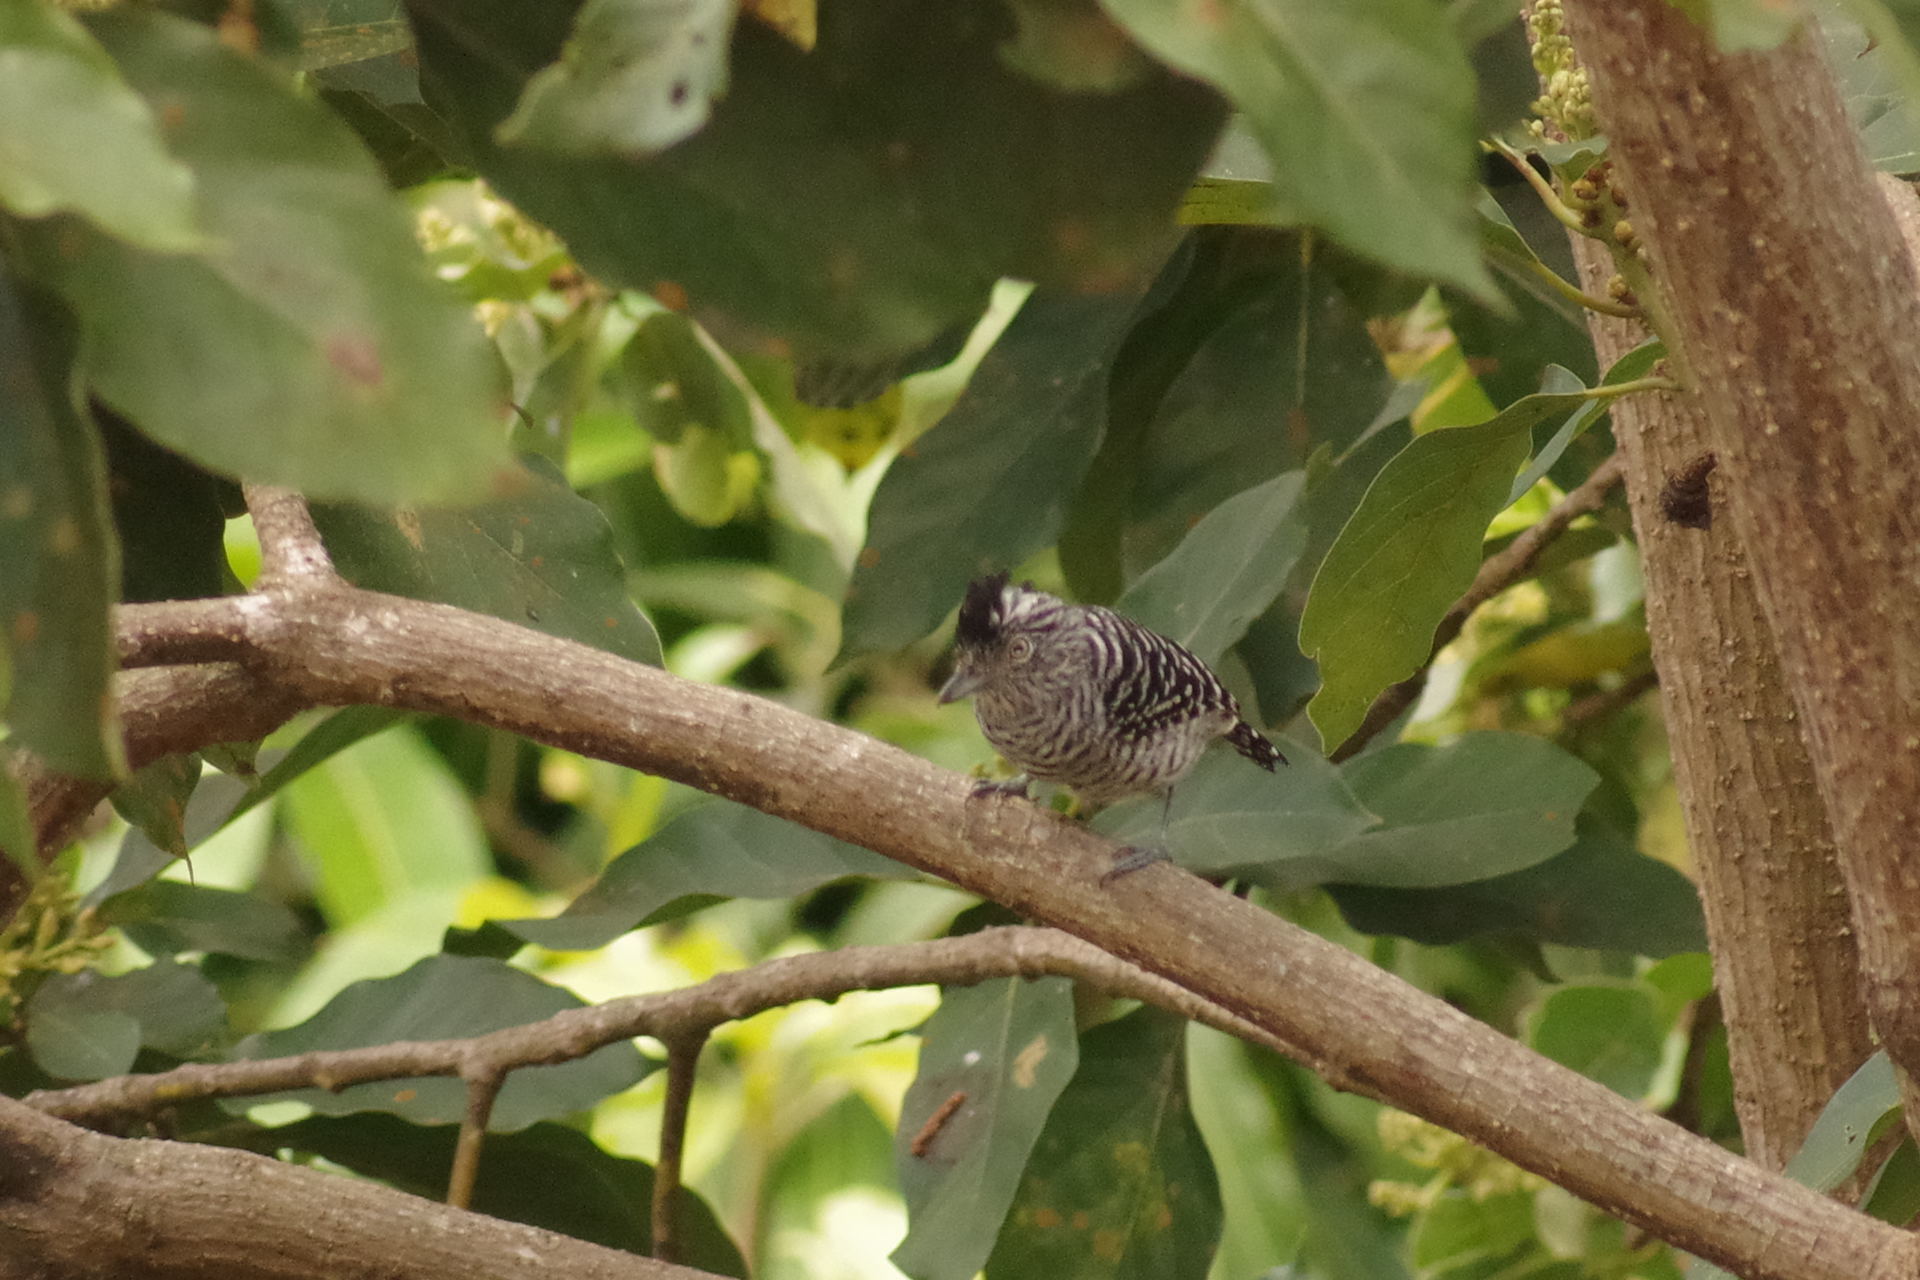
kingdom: Animalia
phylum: Chordata
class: Aves
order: Passeriformes
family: Thamnophilidae
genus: Thamnophilus
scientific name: Thamnophilus doliatus
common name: Barred antshrike
